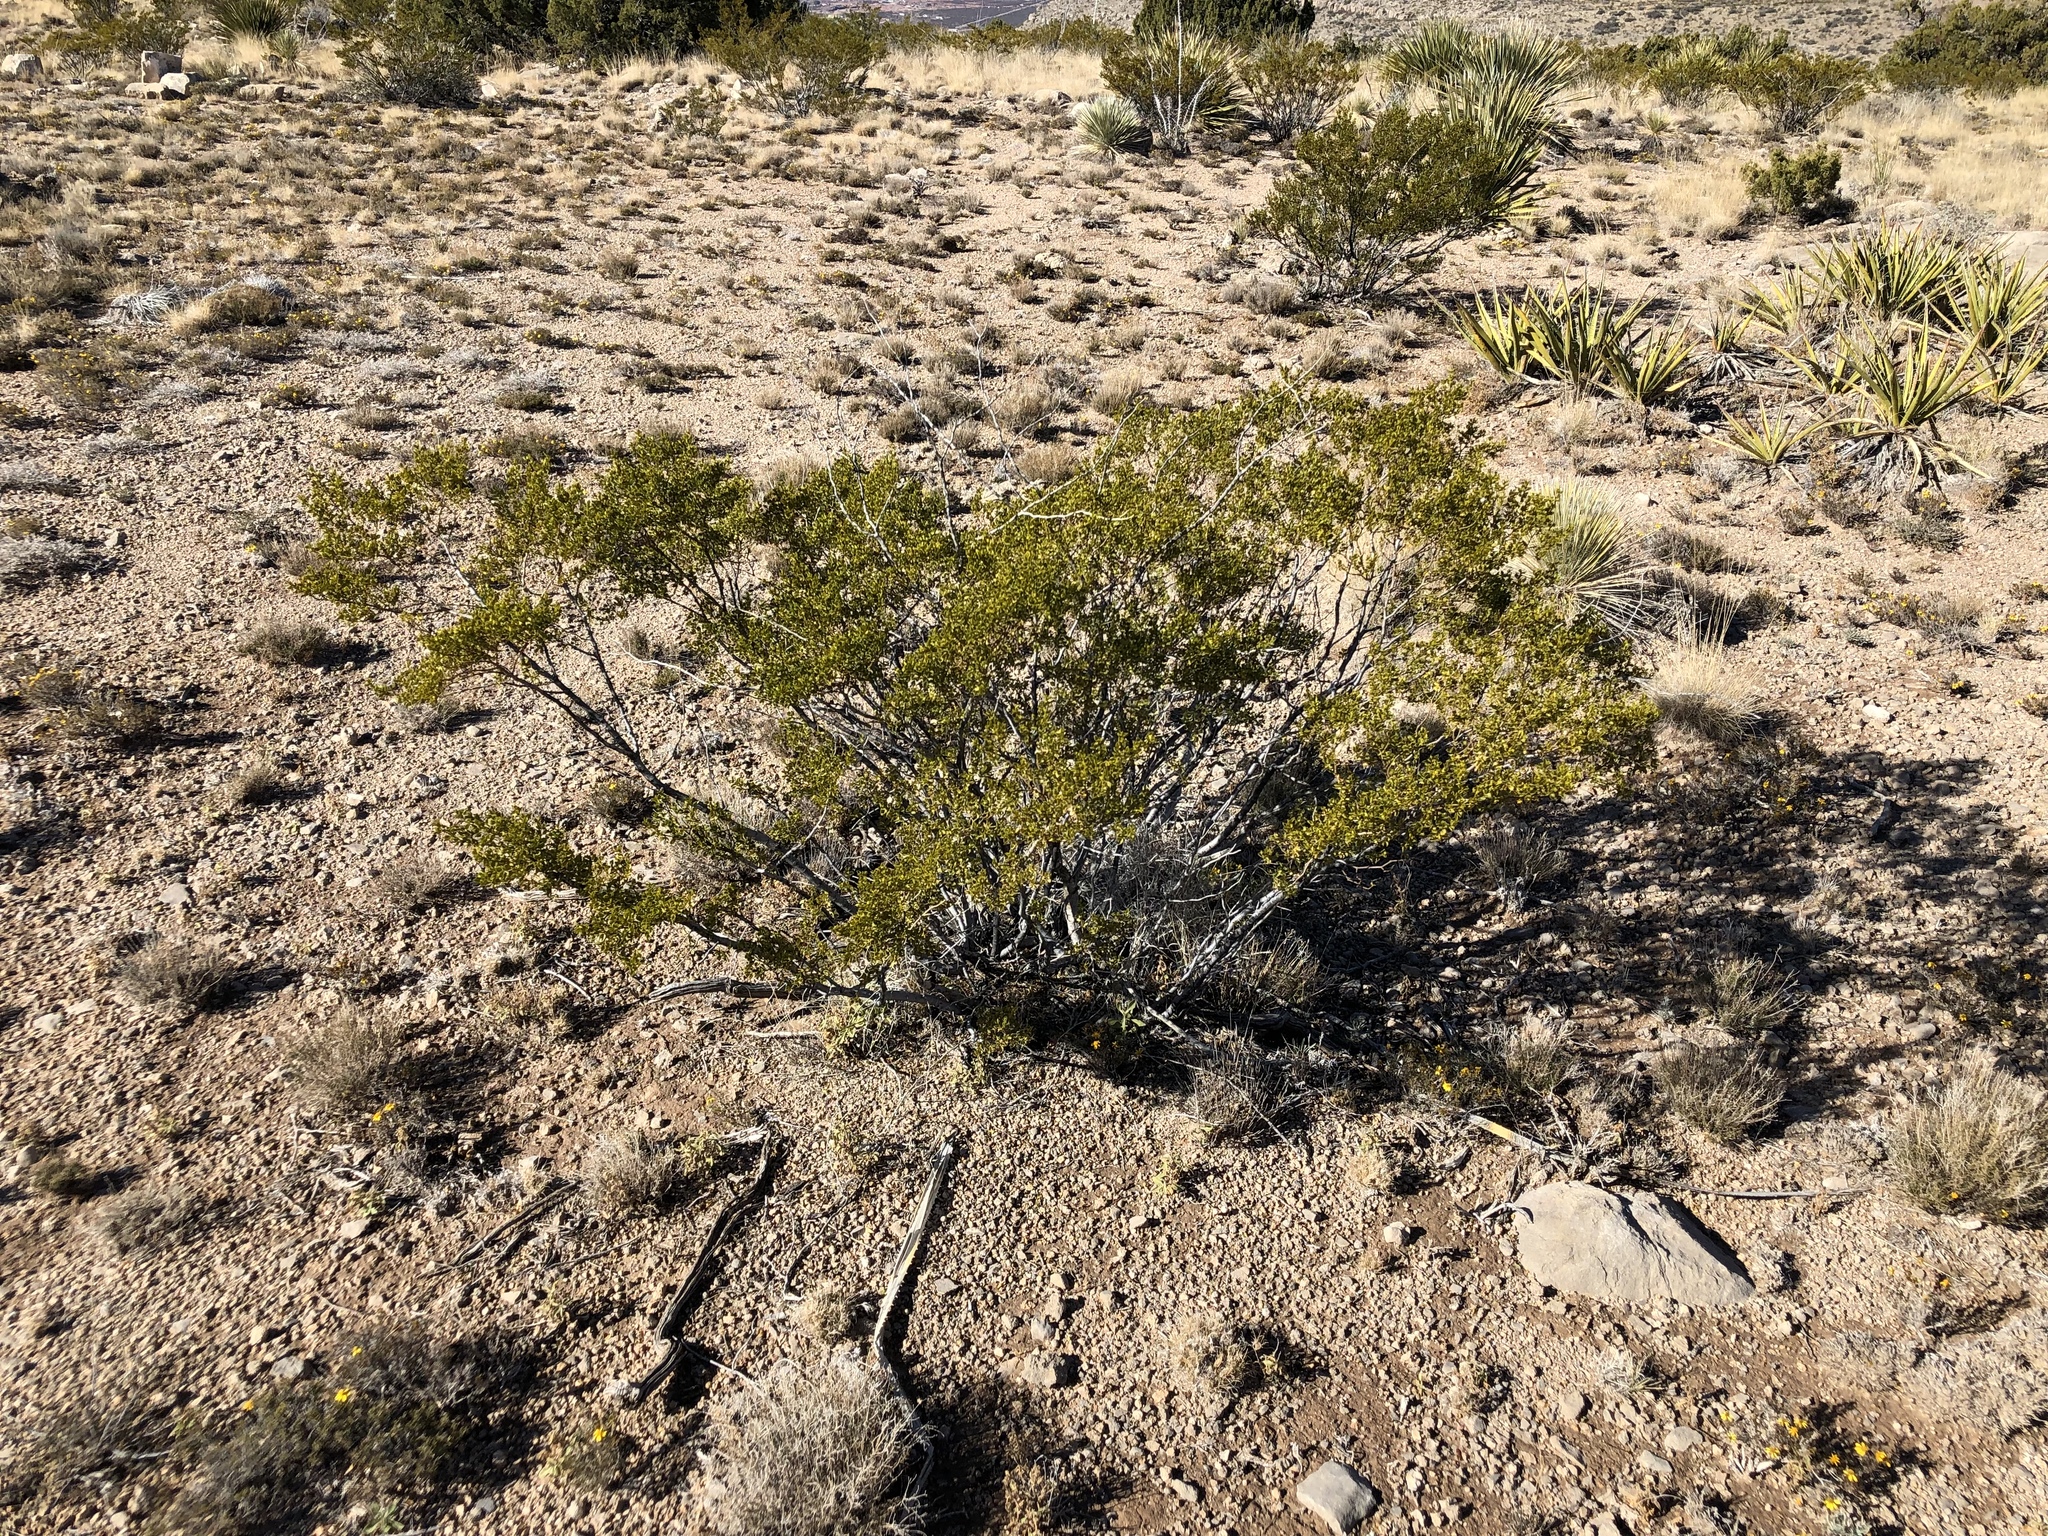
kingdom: Plantae
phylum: Tracheophyta
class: Magnoliopsida
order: Zygophyllales
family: Zygophyllaceae
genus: Larrea
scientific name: Larrea tridentata
